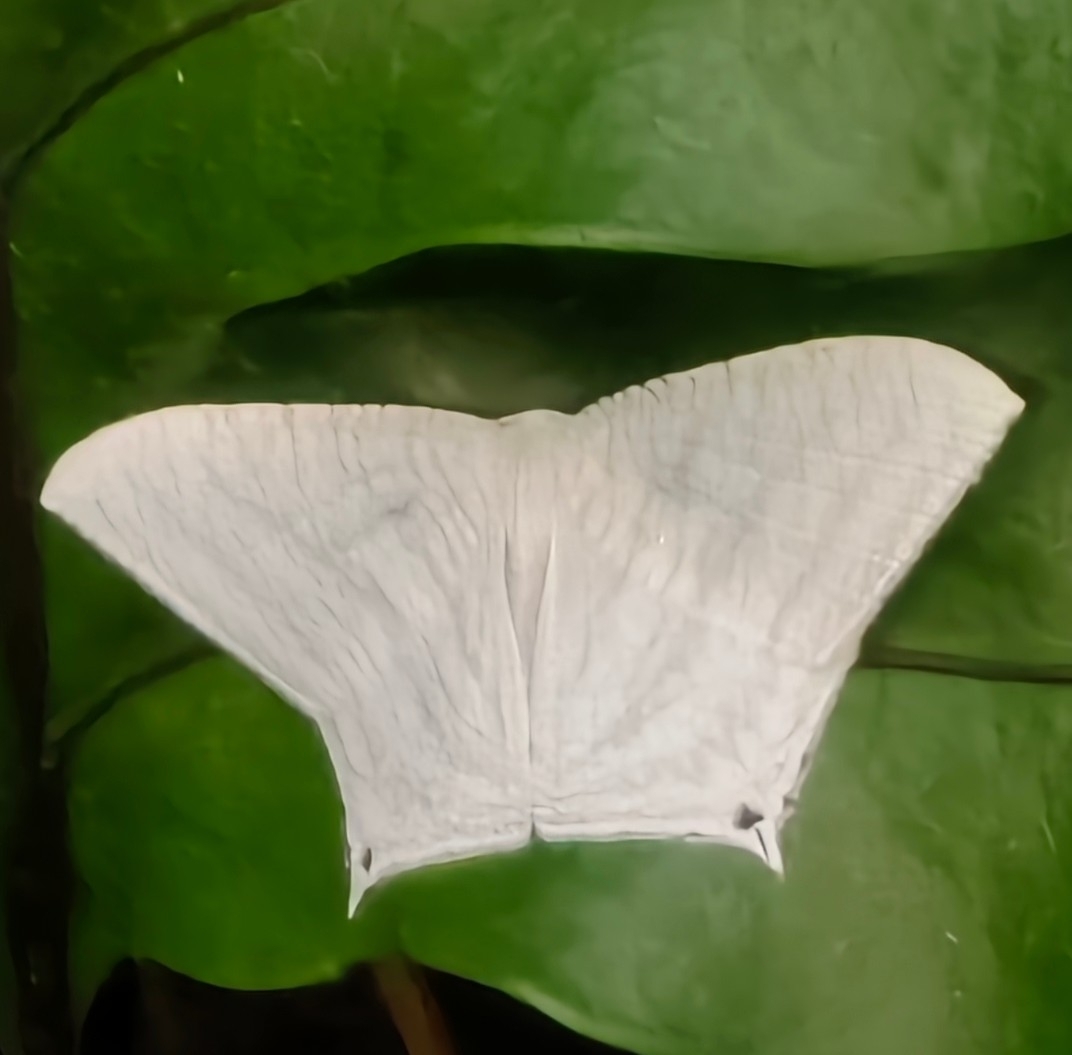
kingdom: Animalia
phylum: Arthropoda
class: Insecta
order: Lepidoptera
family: Uraniidae
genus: Micronia
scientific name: Micronia aculeata
